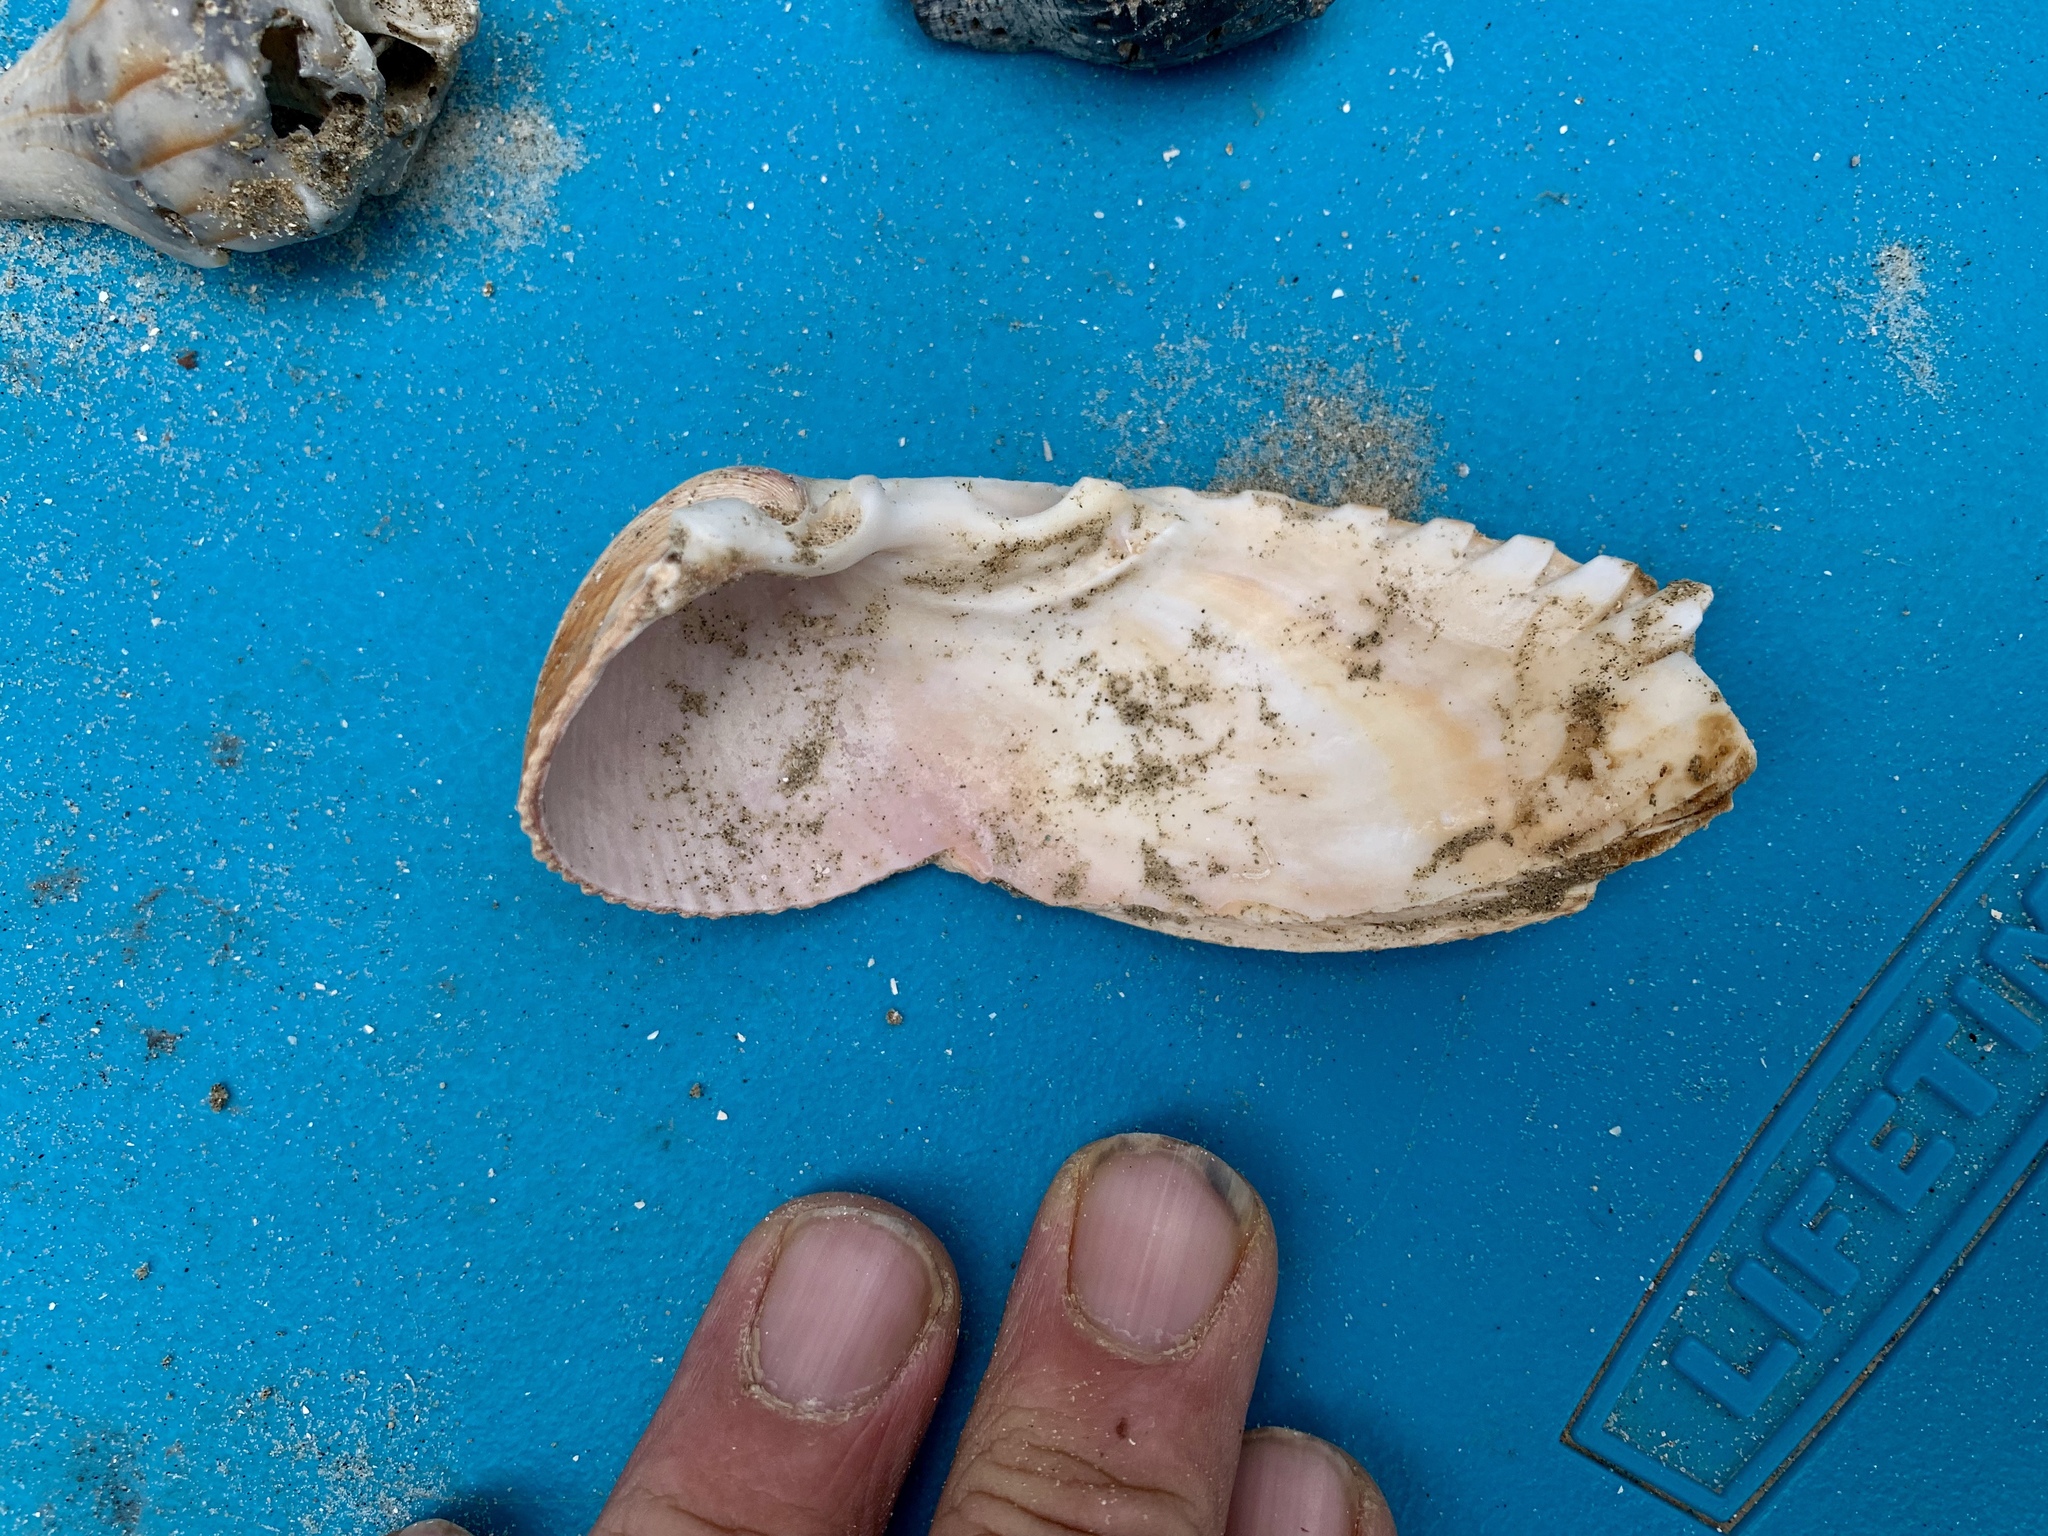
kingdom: Animalia
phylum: Mollusca
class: Bivalvia
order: Cardiida
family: Cardiidae
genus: Dinocardium
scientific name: Dinocardium robustum
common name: Atlantic giant cockle
